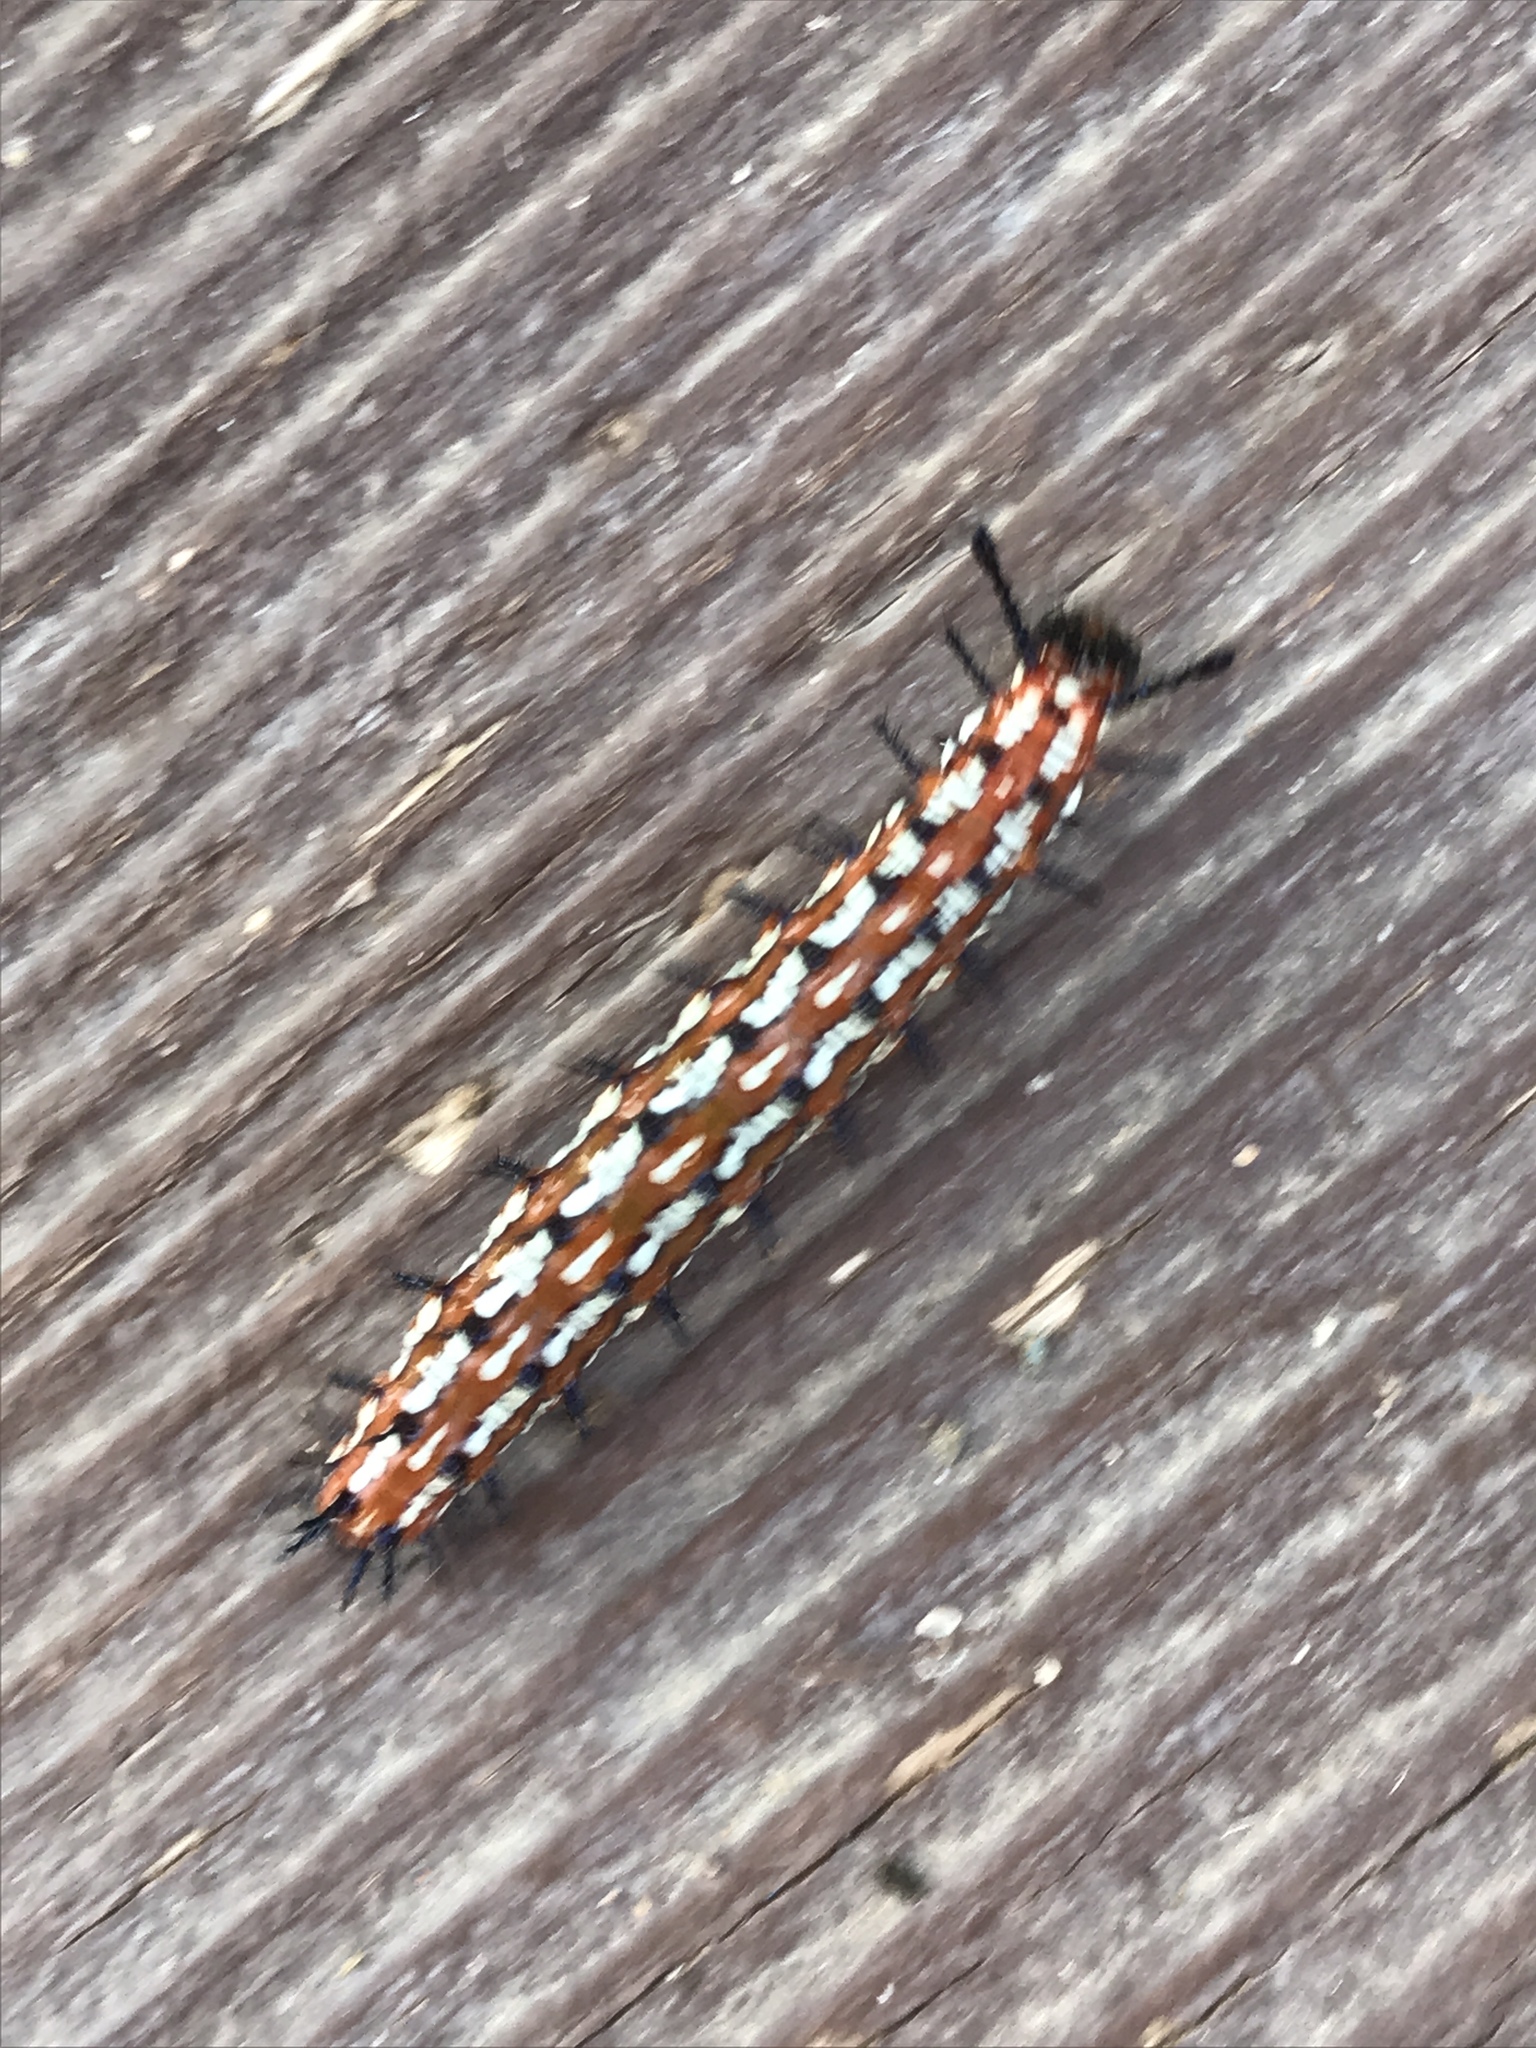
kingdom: Animalia
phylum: Arthropoda
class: Insecta
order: Lepidoptera
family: Nymphalidae
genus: Euptoieta
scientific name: Euptoieta claudia
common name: Variegated fritillary
